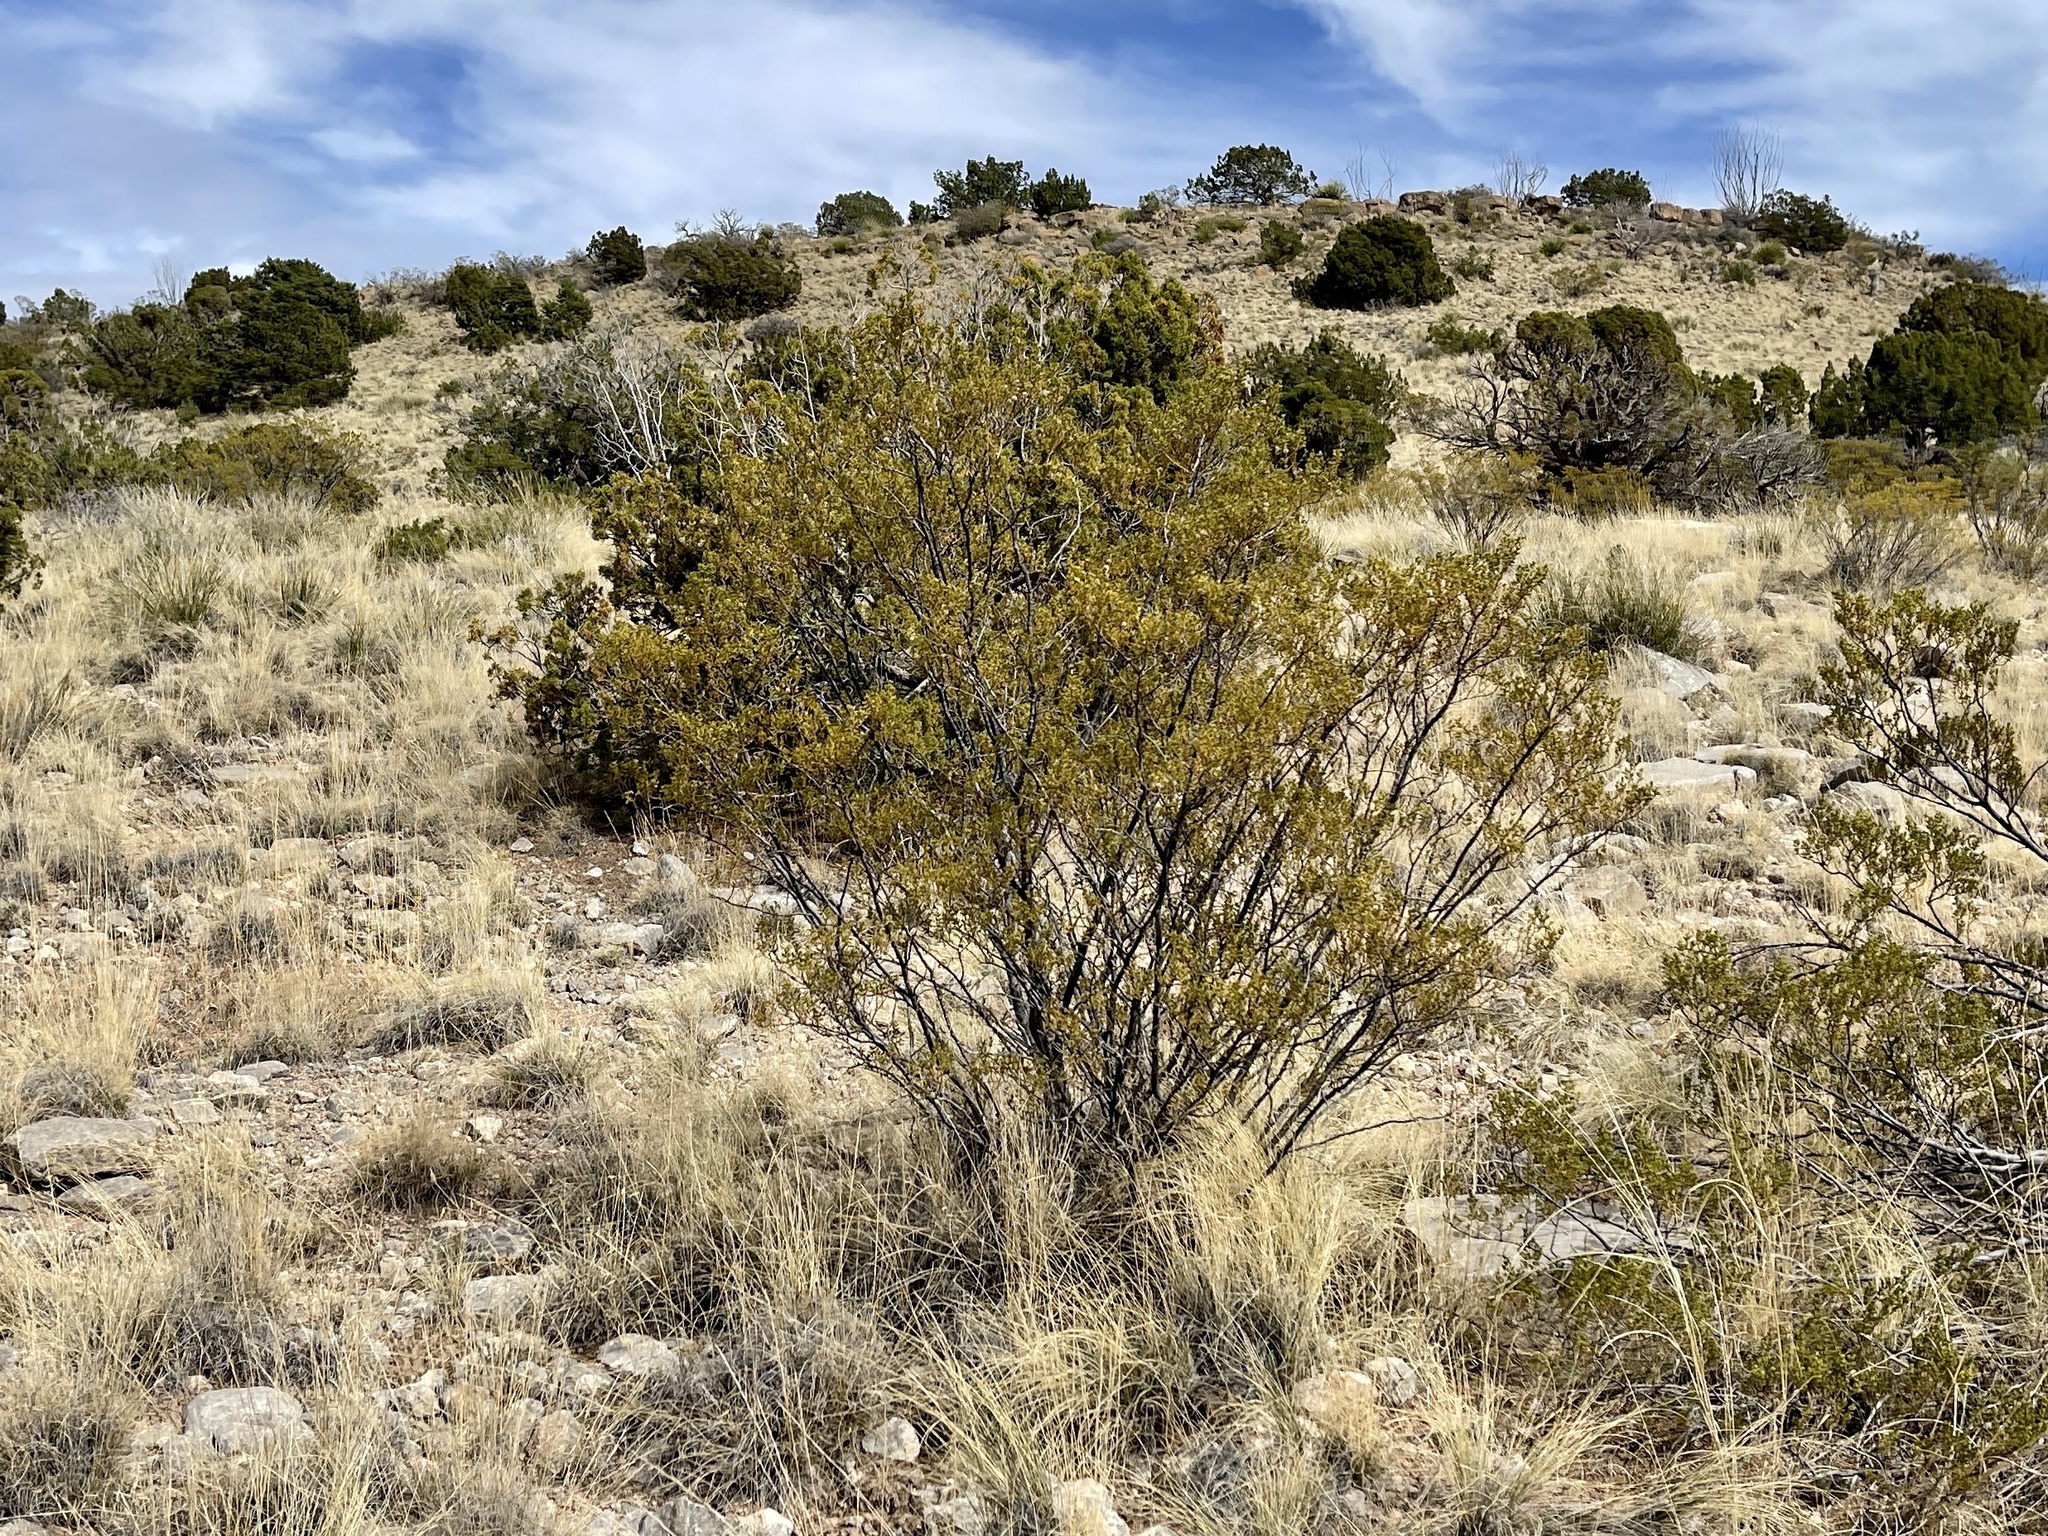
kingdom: Plantae
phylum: Tracheophyta
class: Magnoliopsida
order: Zygophyllales
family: Zygophyllaceae
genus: Larrea
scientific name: Larrea tridentata
